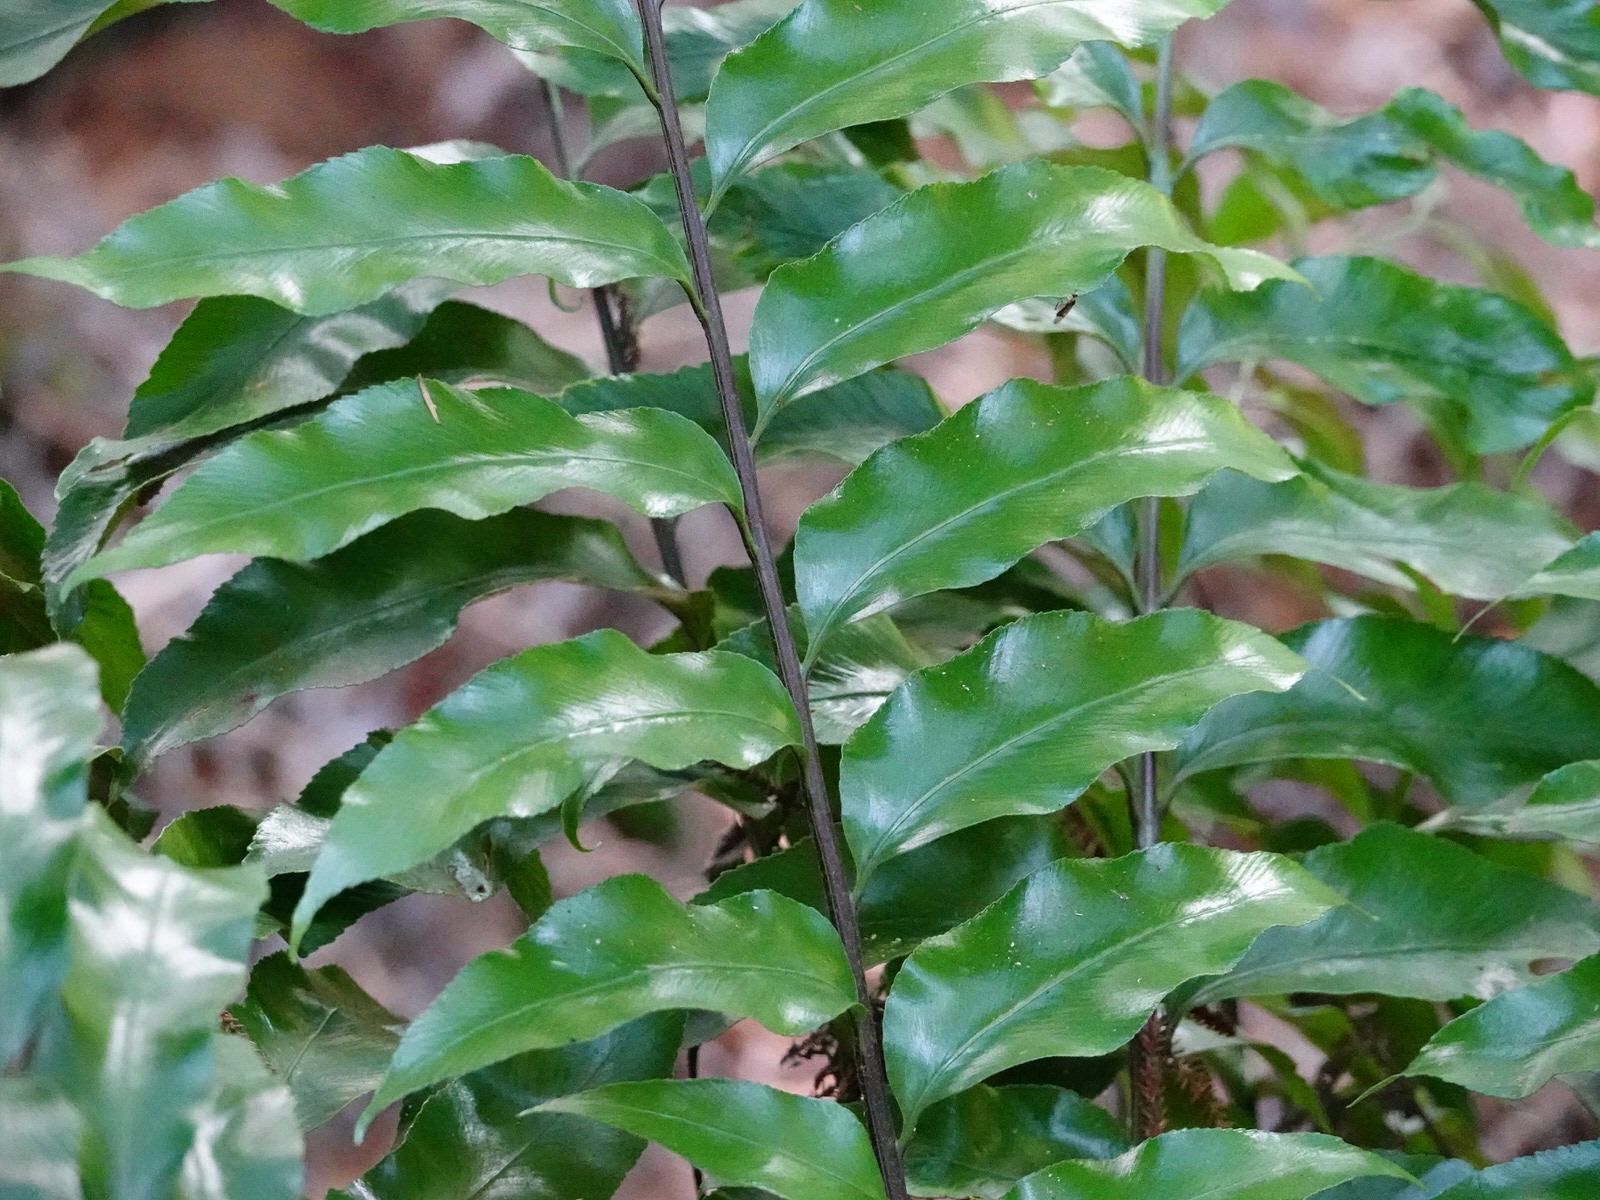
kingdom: Plantae
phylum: Tracheophyta
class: Polypodiopsida
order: Polypodiales
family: Aspleniaceae
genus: Asplenium
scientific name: Asplenium oblongifolium
